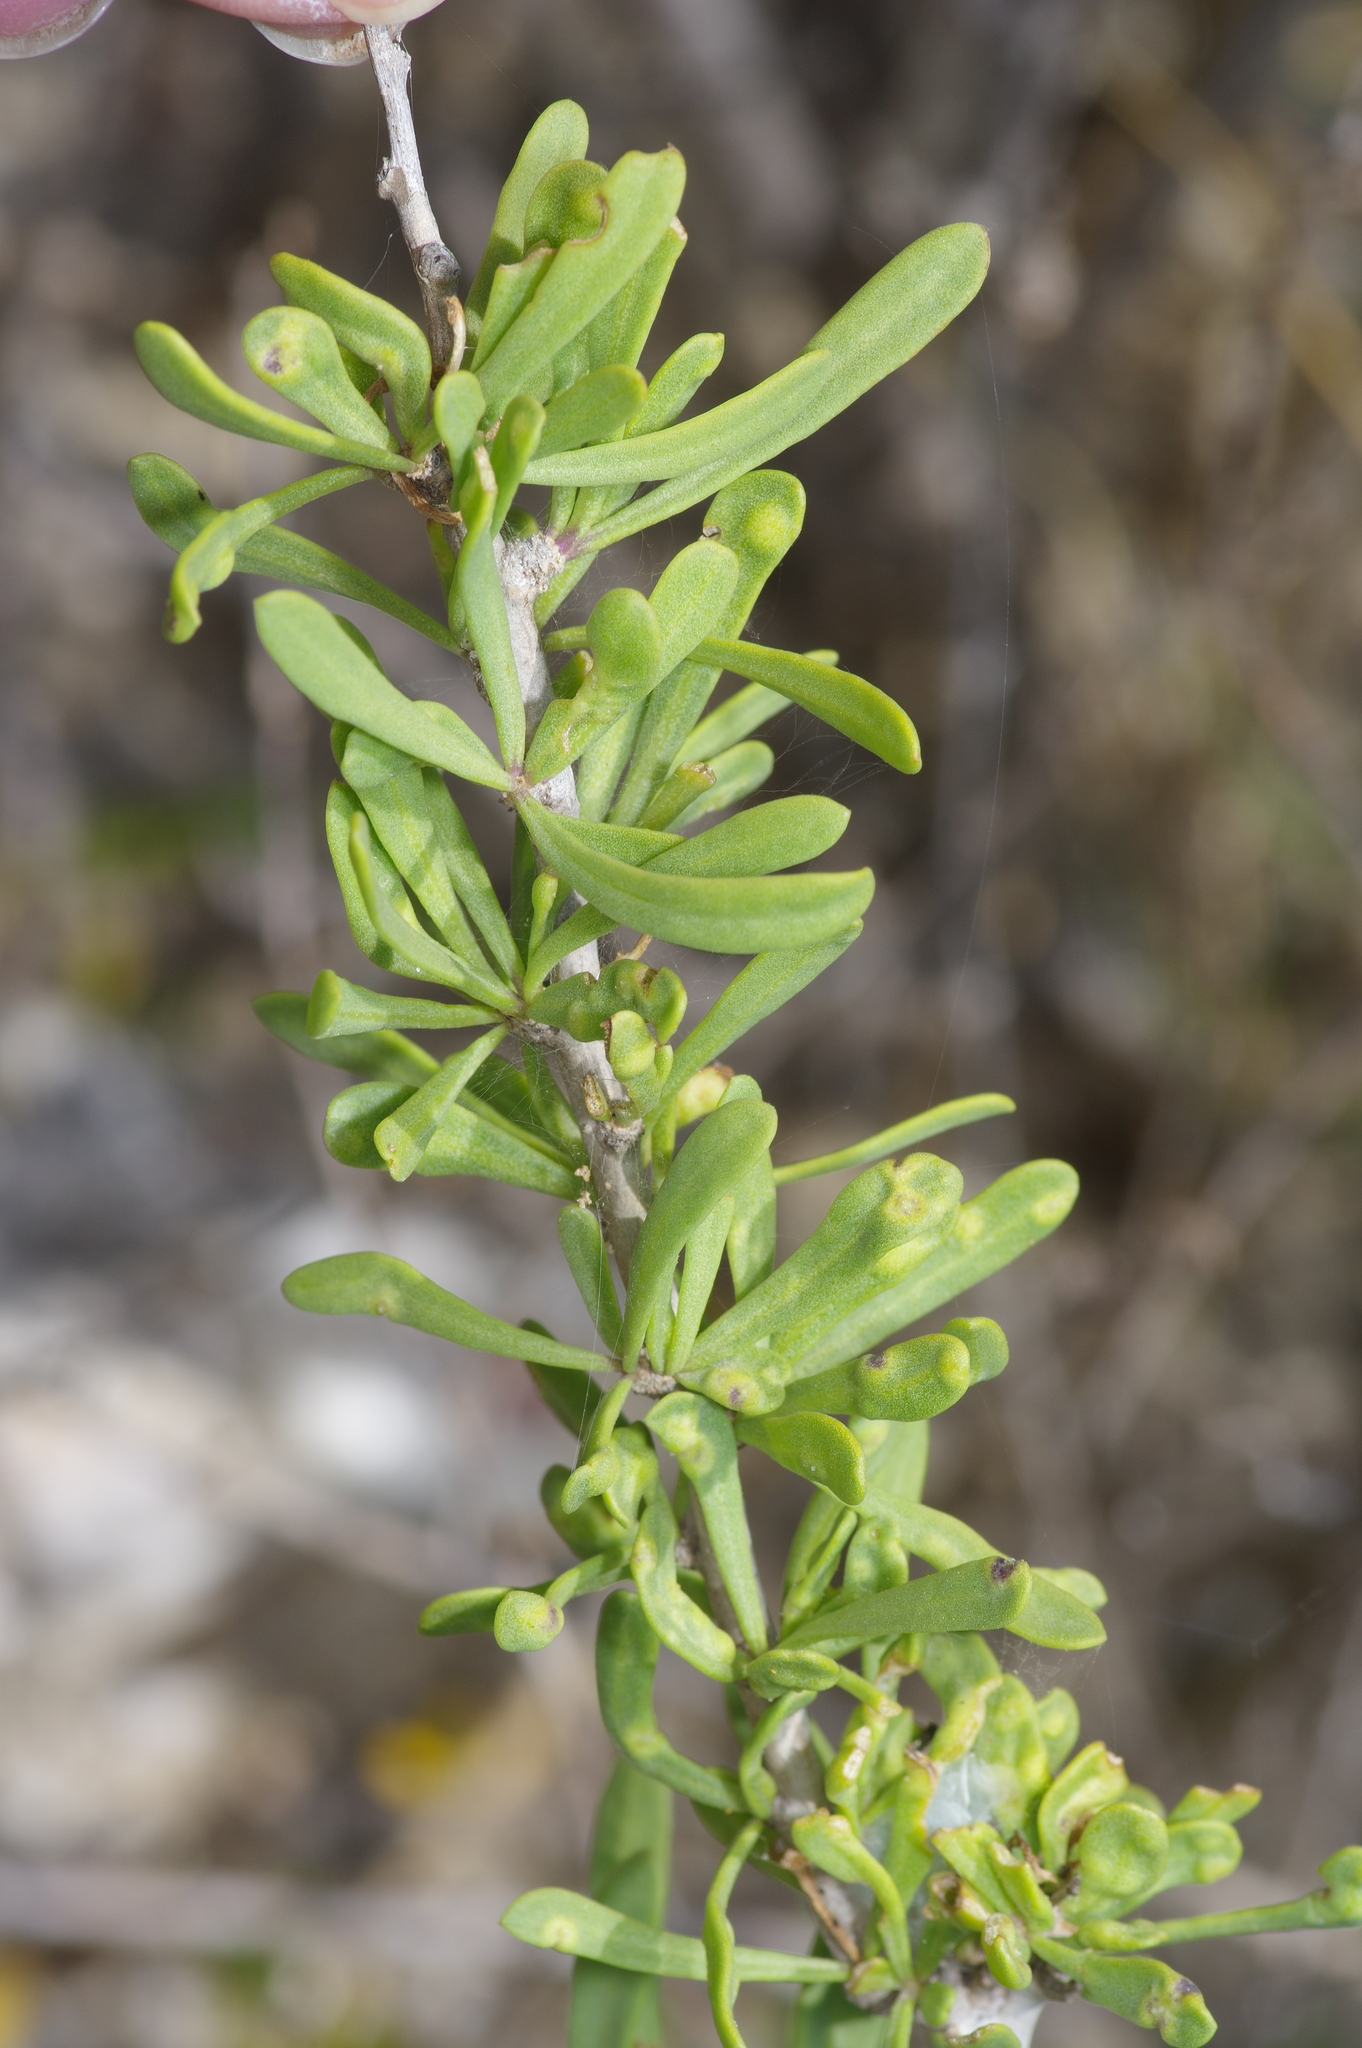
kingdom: Plantae
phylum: Tracheophyta
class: Magnoliopsida
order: Solanales
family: Solanaceae
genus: Lycium
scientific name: Lycium carolinianum
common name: Christmasberry
